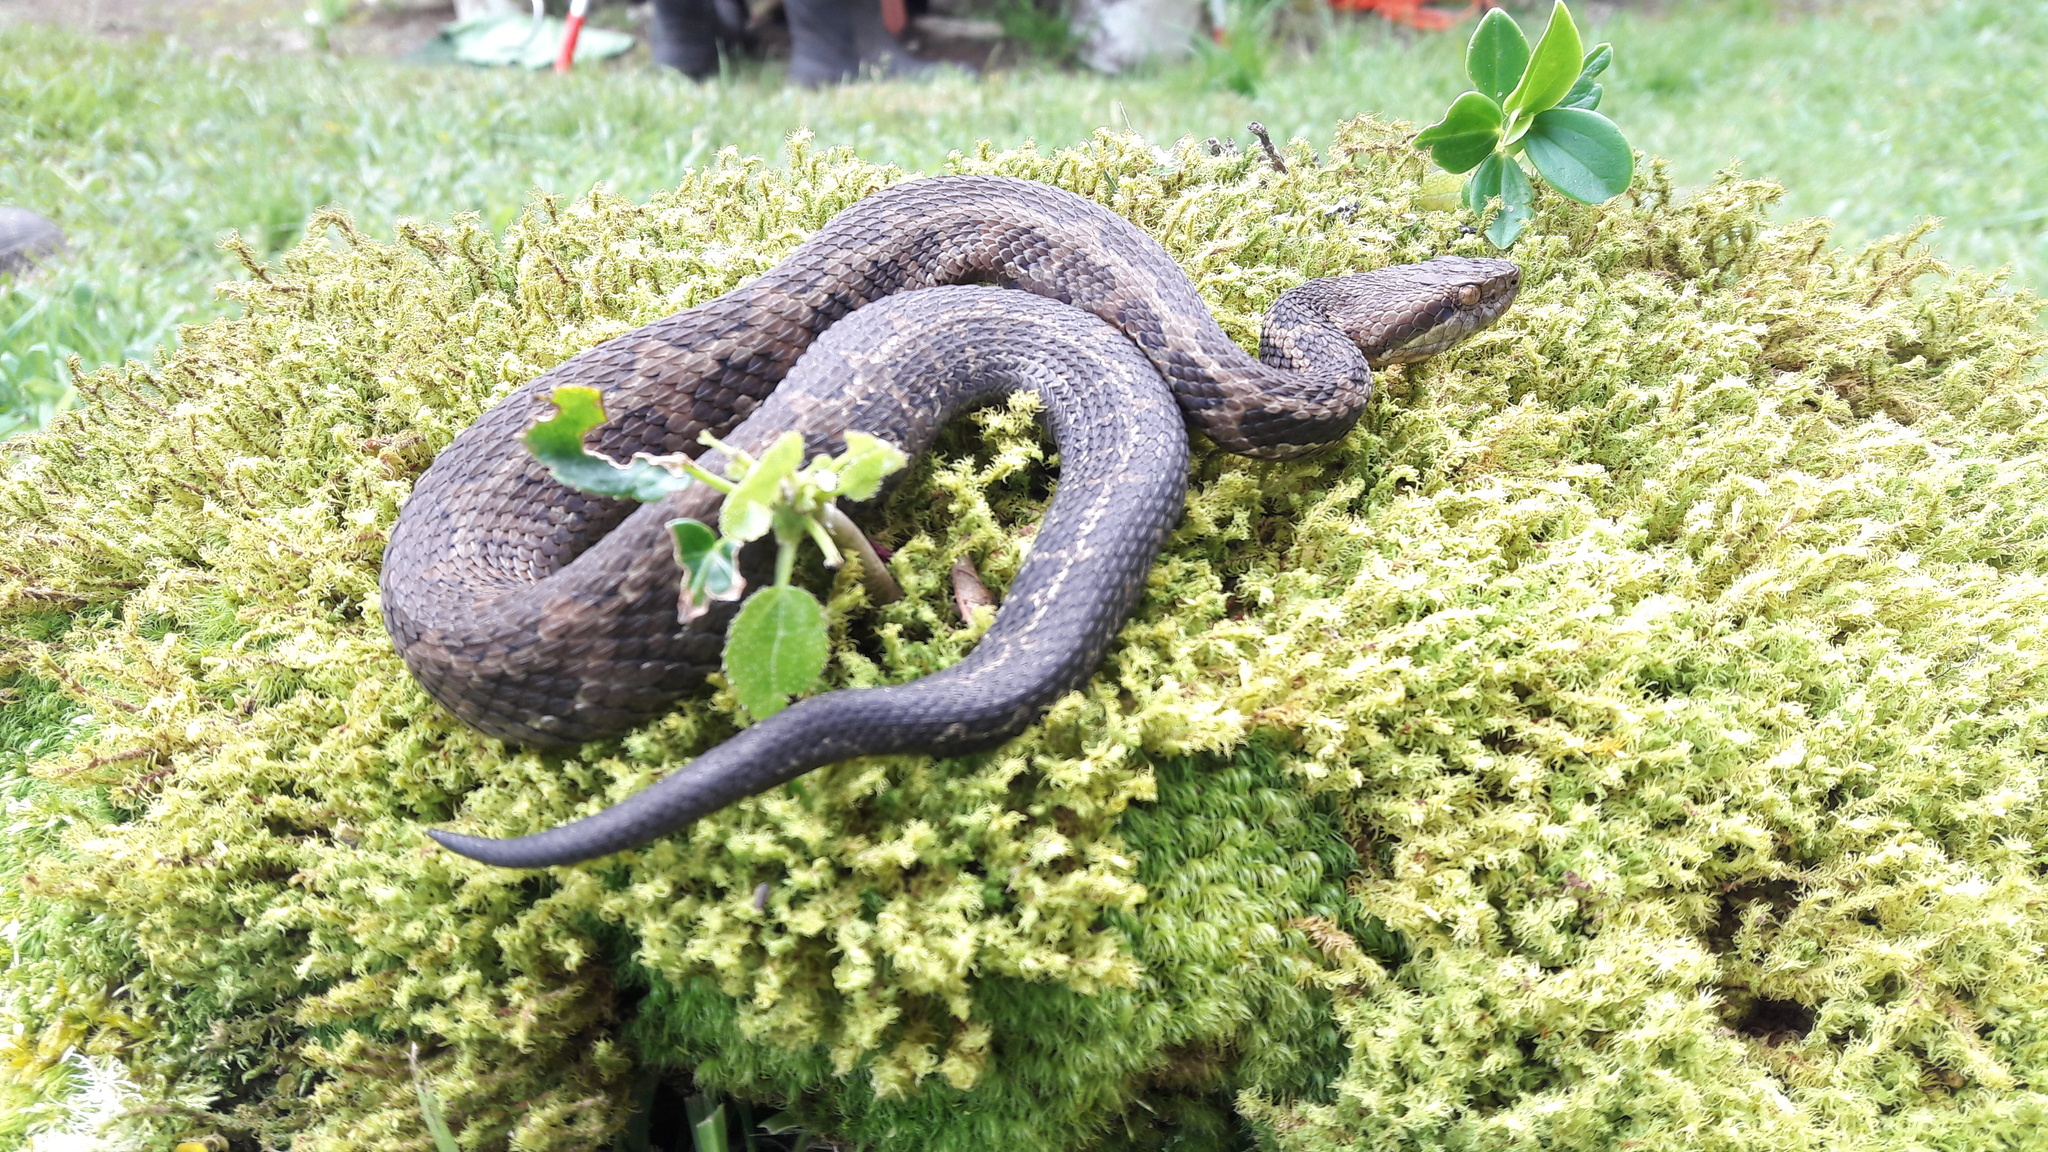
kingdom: Animalia
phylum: Chordata
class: Squamata
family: Viperidae
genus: Cerrophidion
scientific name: Cerrophidion sasai
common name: Costa rica montane pitviper
